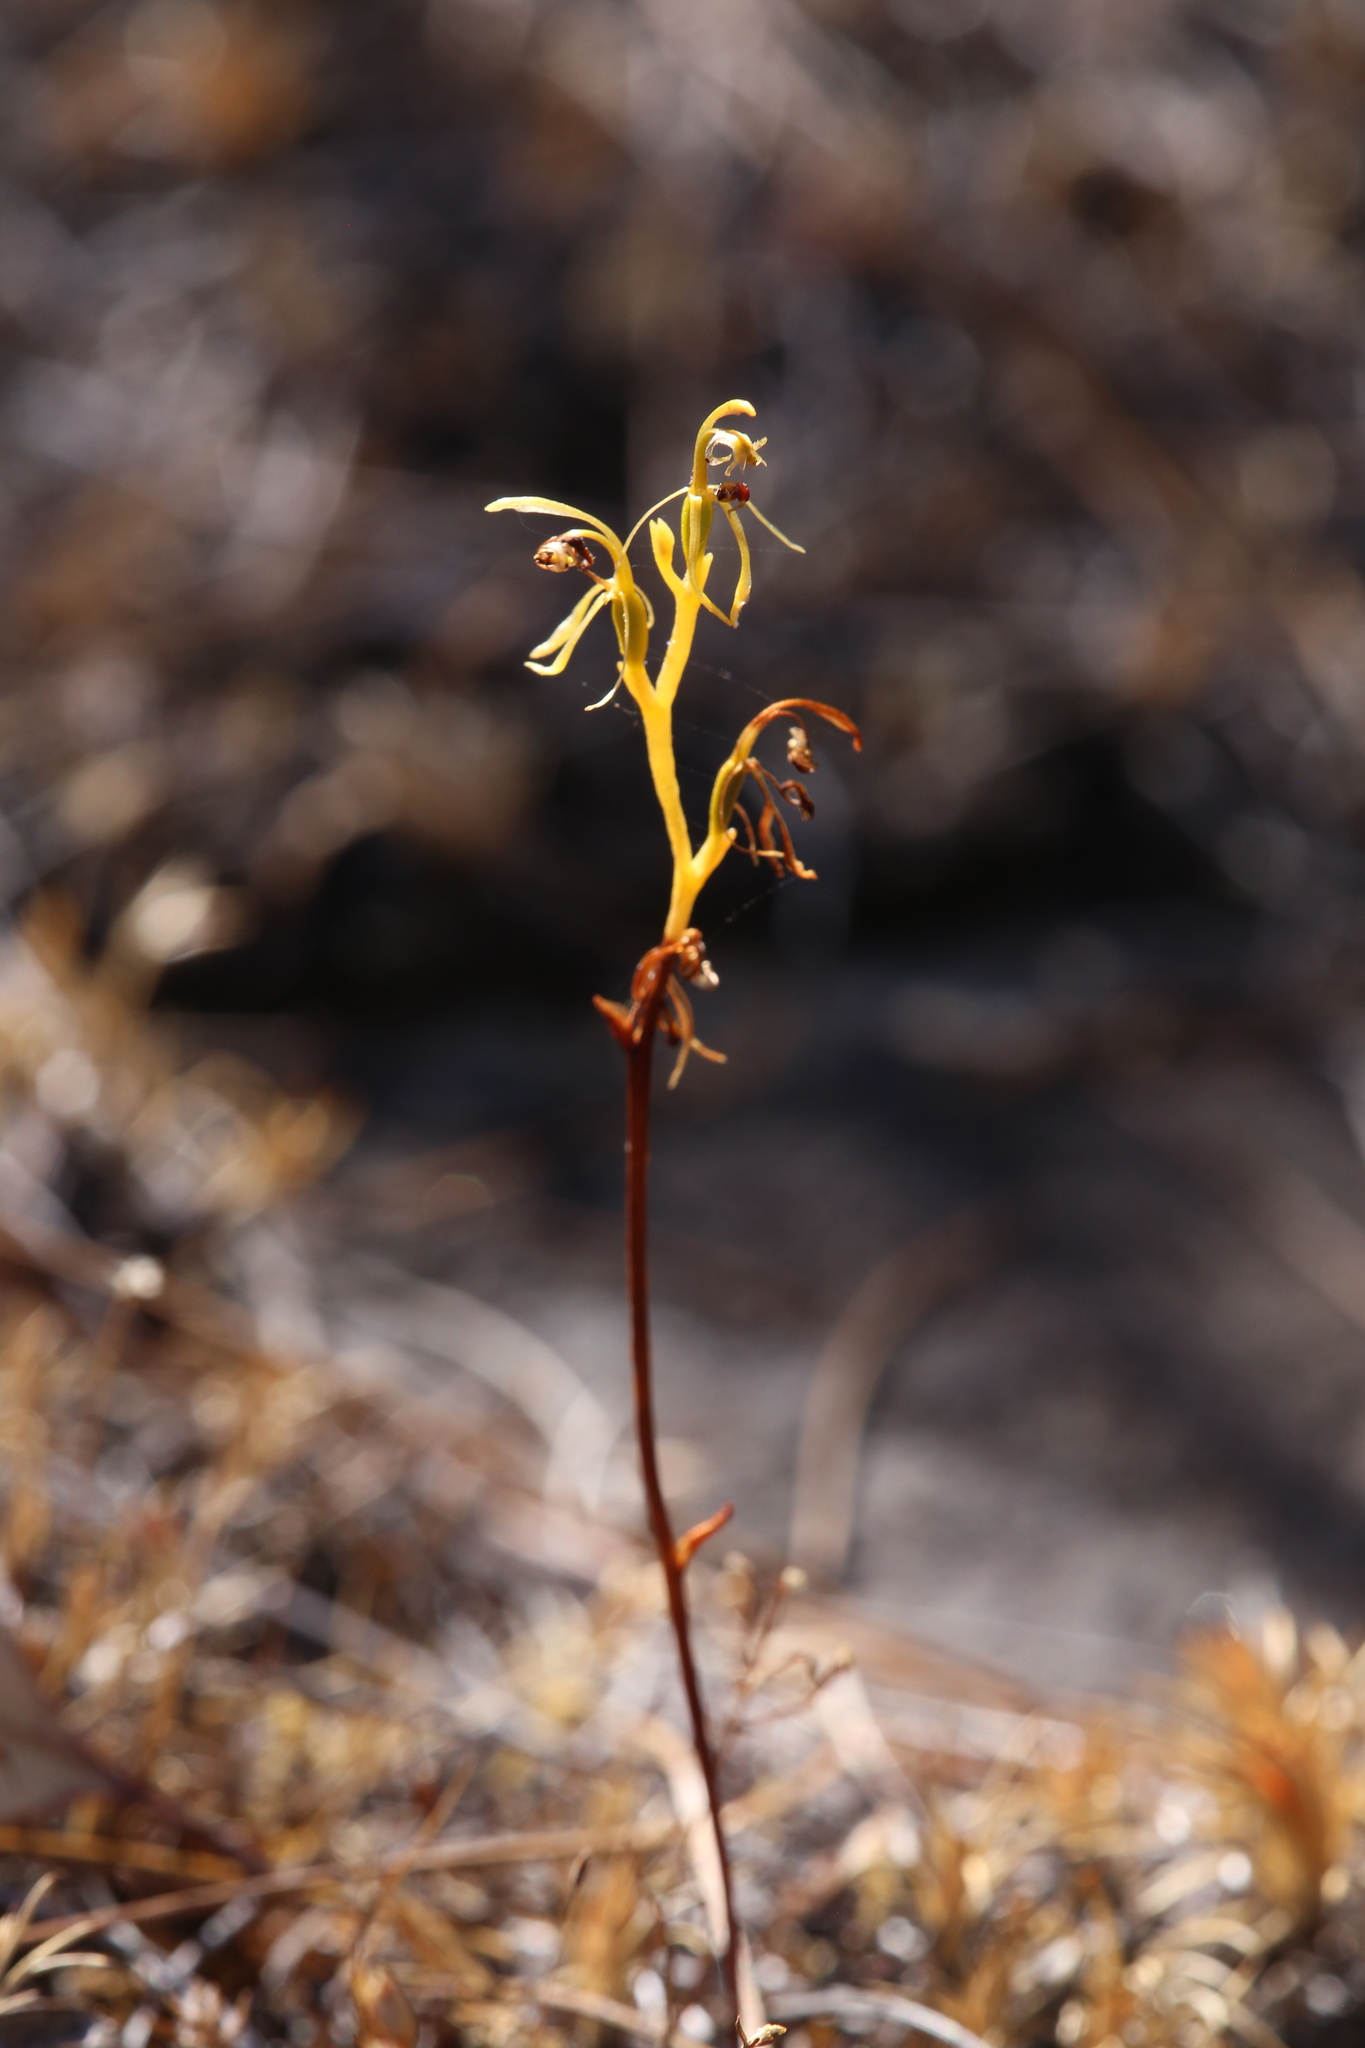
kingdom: Plantae
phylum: Tracheophyta
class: Liliopsida
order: Asparagales
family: Orchidaceae
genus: Spiculaea
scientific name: Spiculaea ciliata
